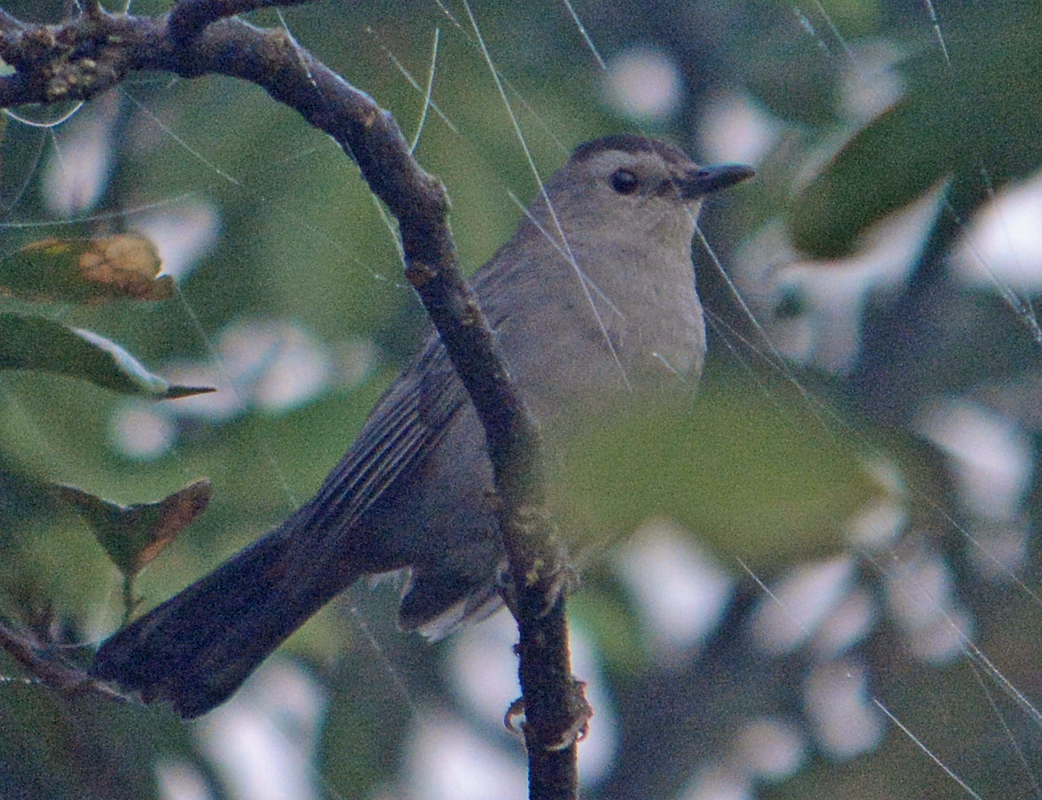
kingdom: Animalia
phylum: Chordata
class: Aves
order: Passeriformes
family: Mimidae
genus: Dumetella
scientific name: Dumetella carolinensis
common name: Gray catbird
